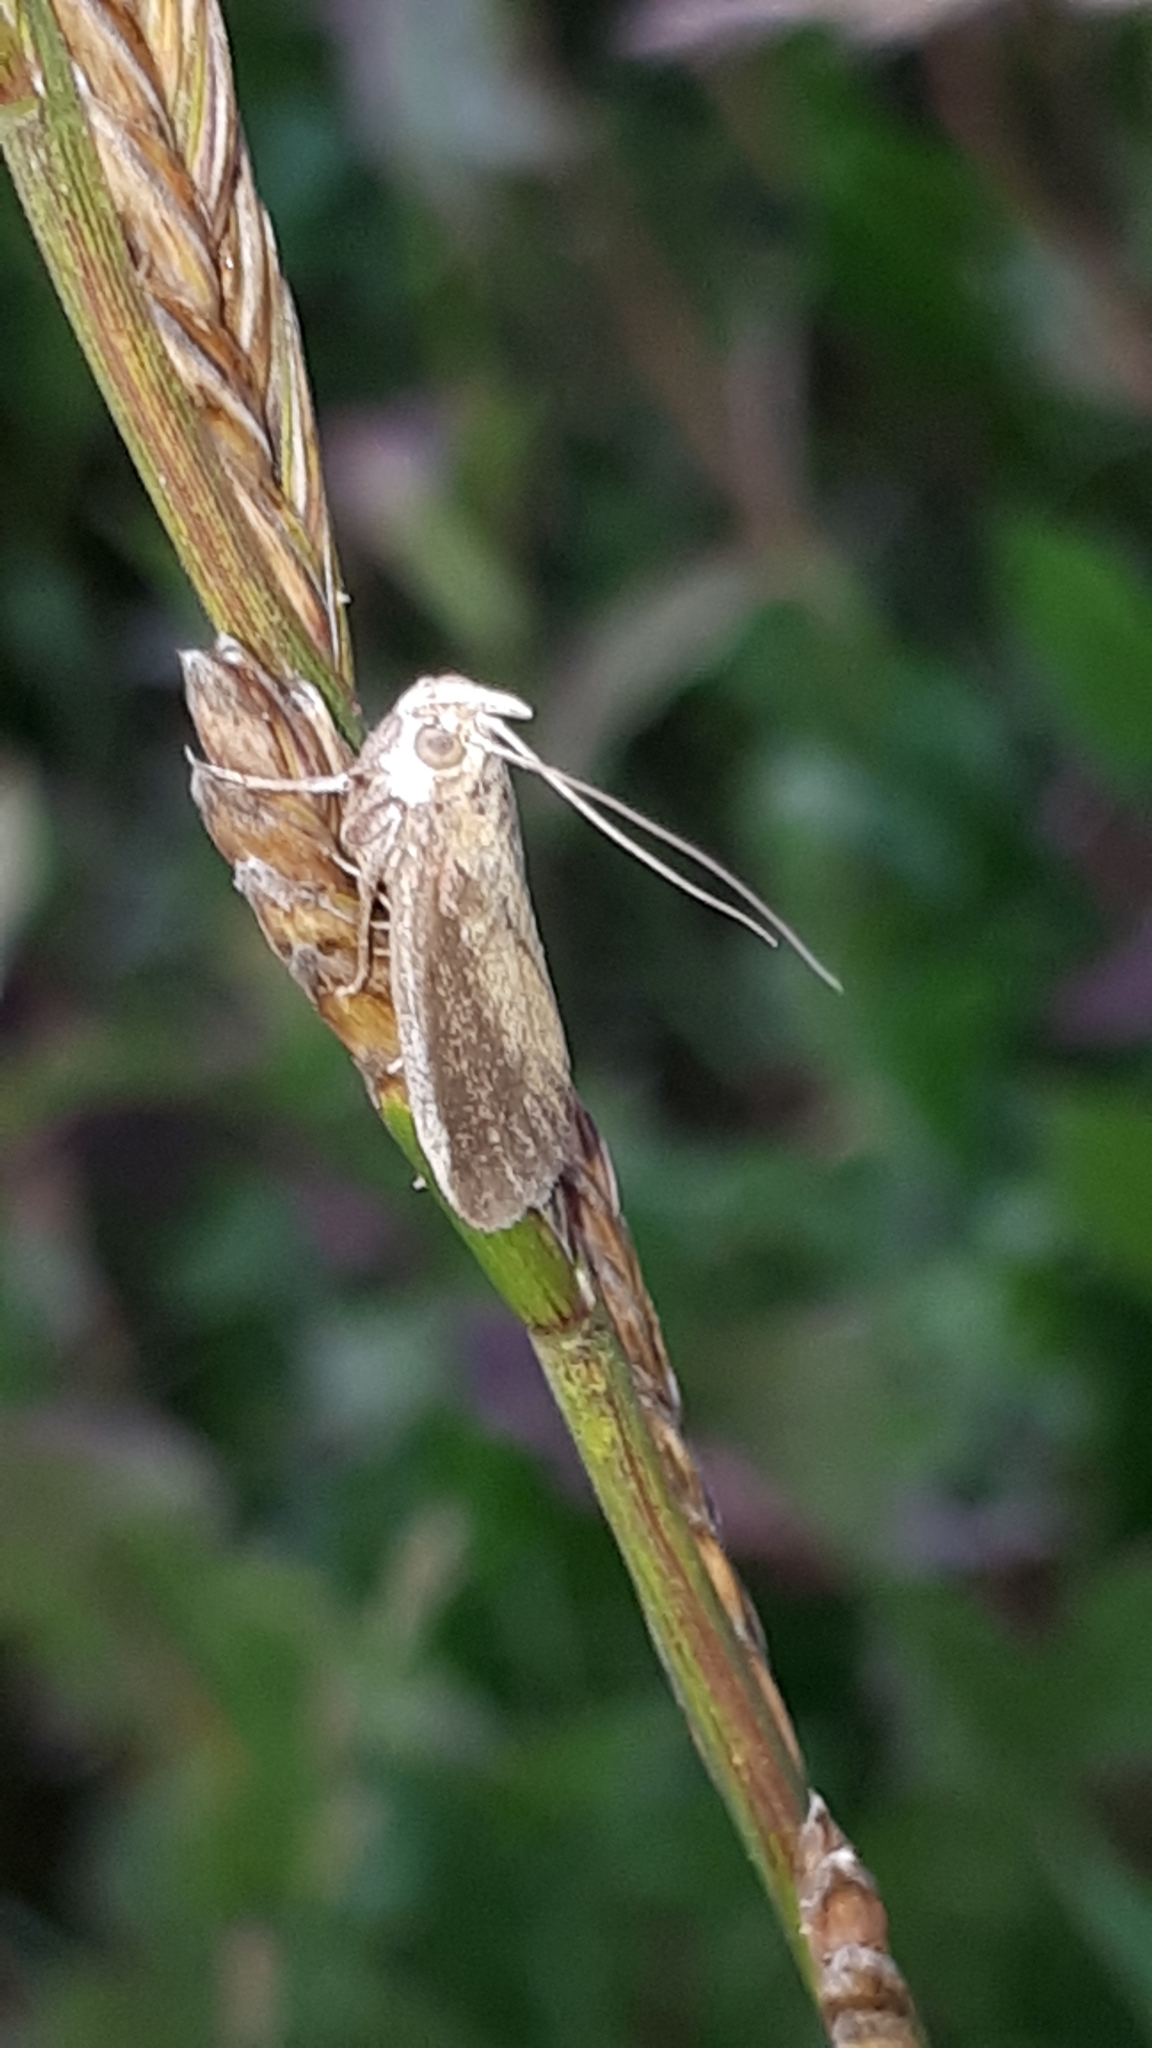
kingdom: Animalia
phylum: Arthropoda
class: Insecta
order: Lepidoptera
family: Pyralidae
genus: Oncocera
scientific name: Oncocera semirubella
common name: Rosy-striped knot-horn
